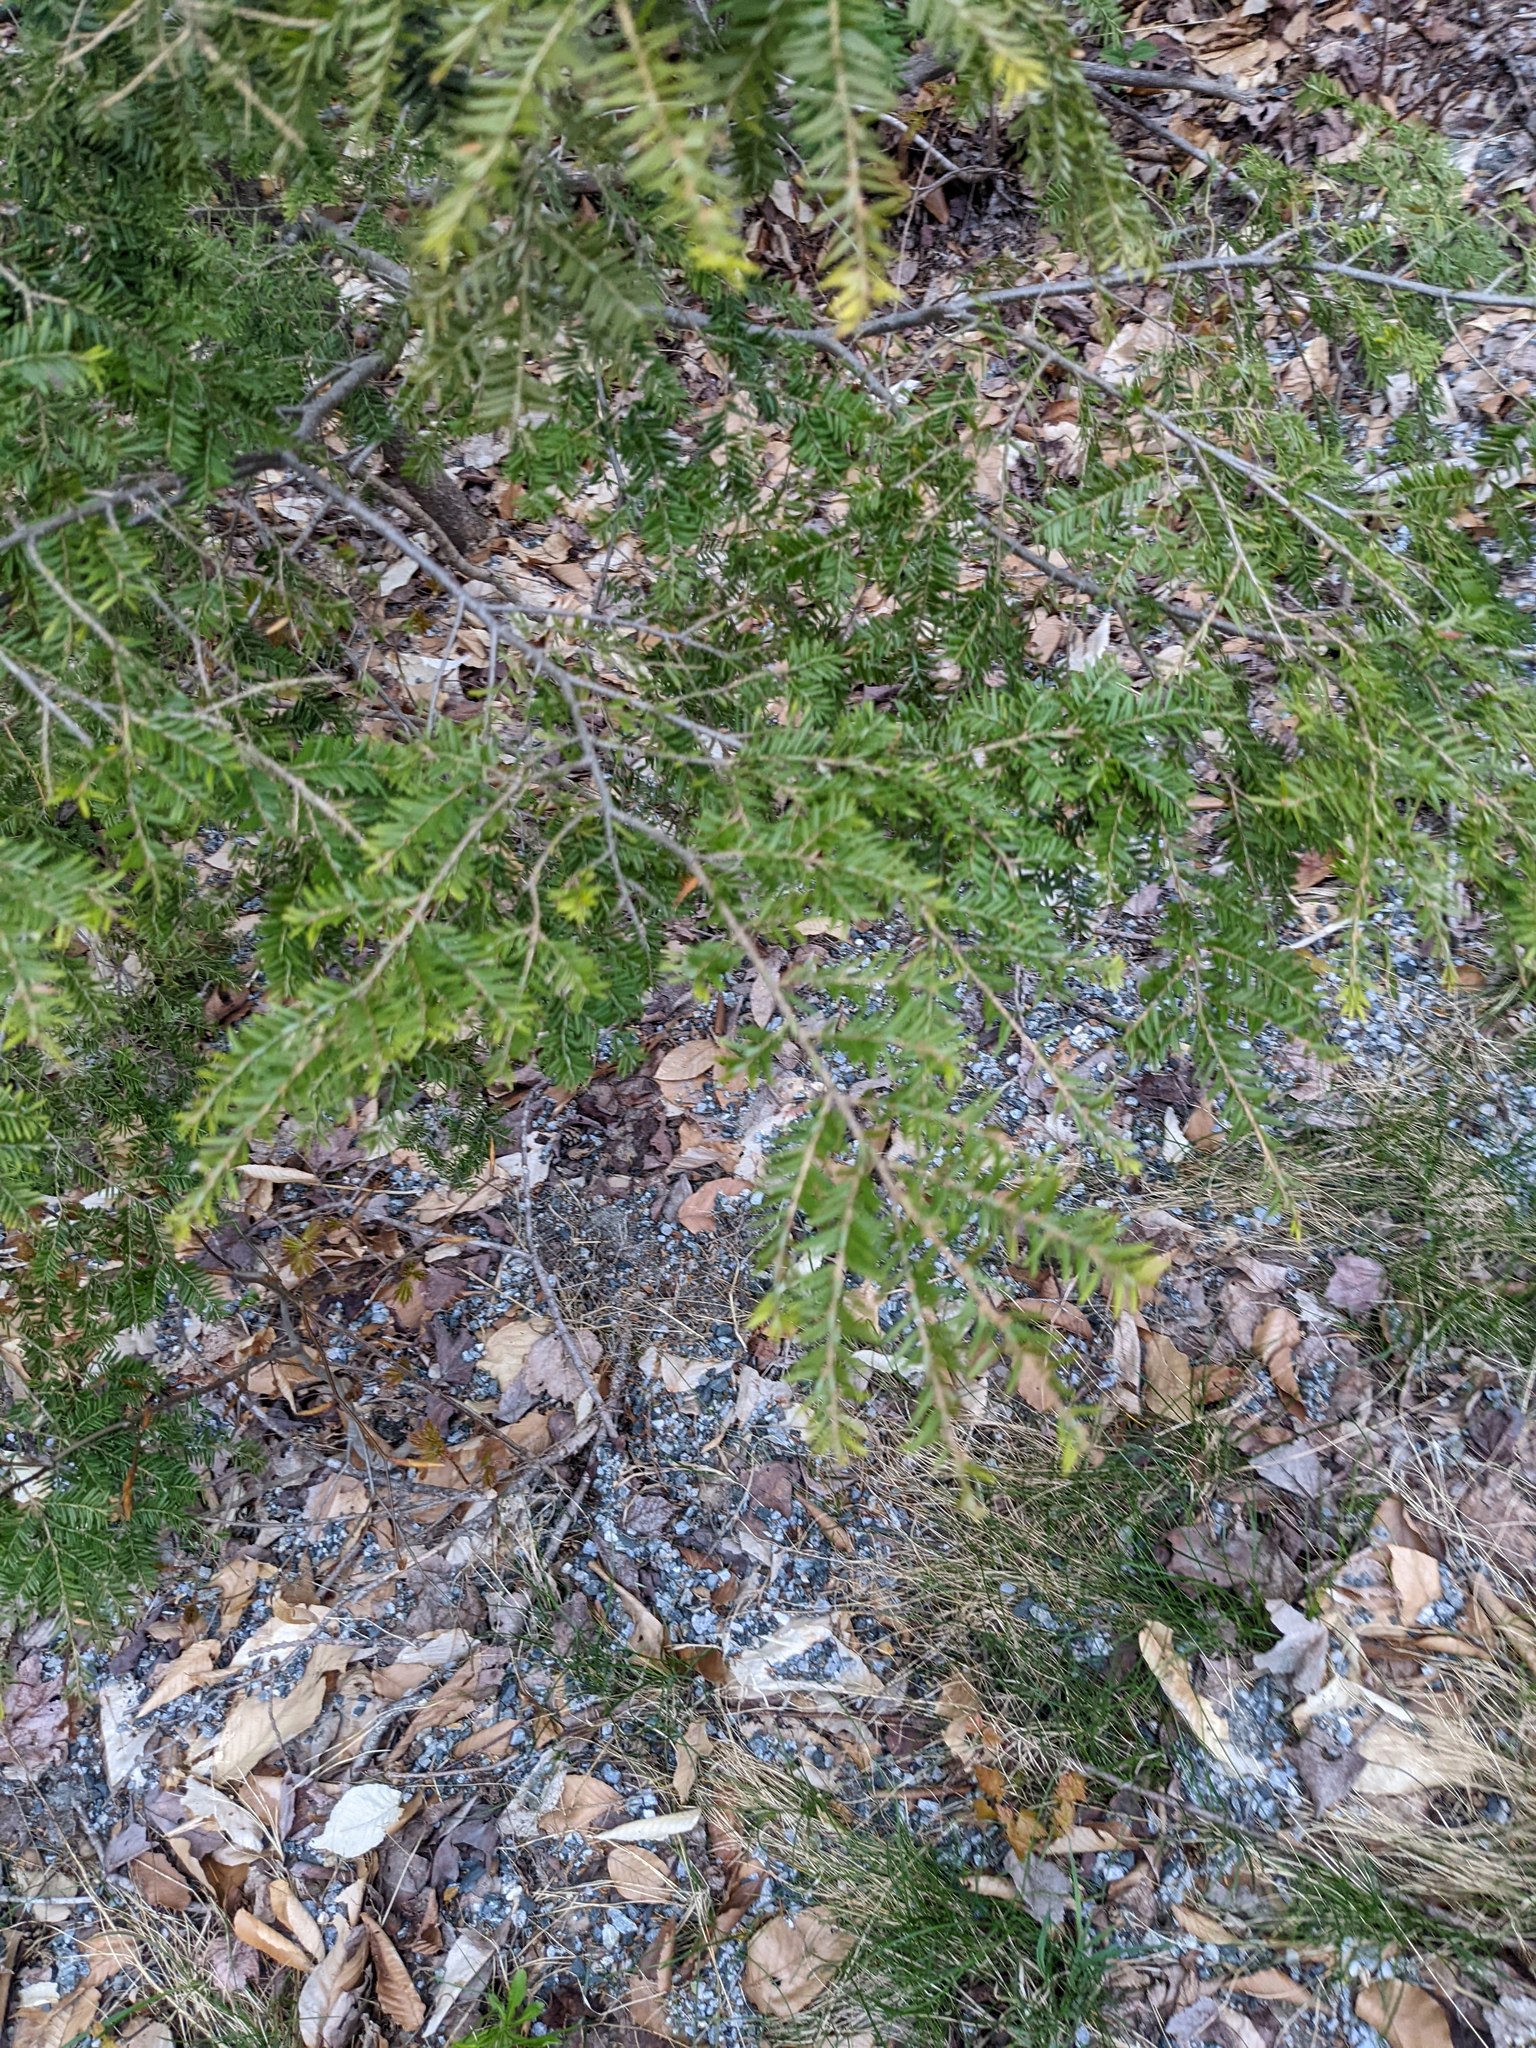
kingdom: Plantae
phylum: Tracheophyta
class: Pinopsida
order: Pinales
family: Pinaceae
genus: Tsuga
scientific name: Tsuga canadensis
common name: Eastern hemlock
